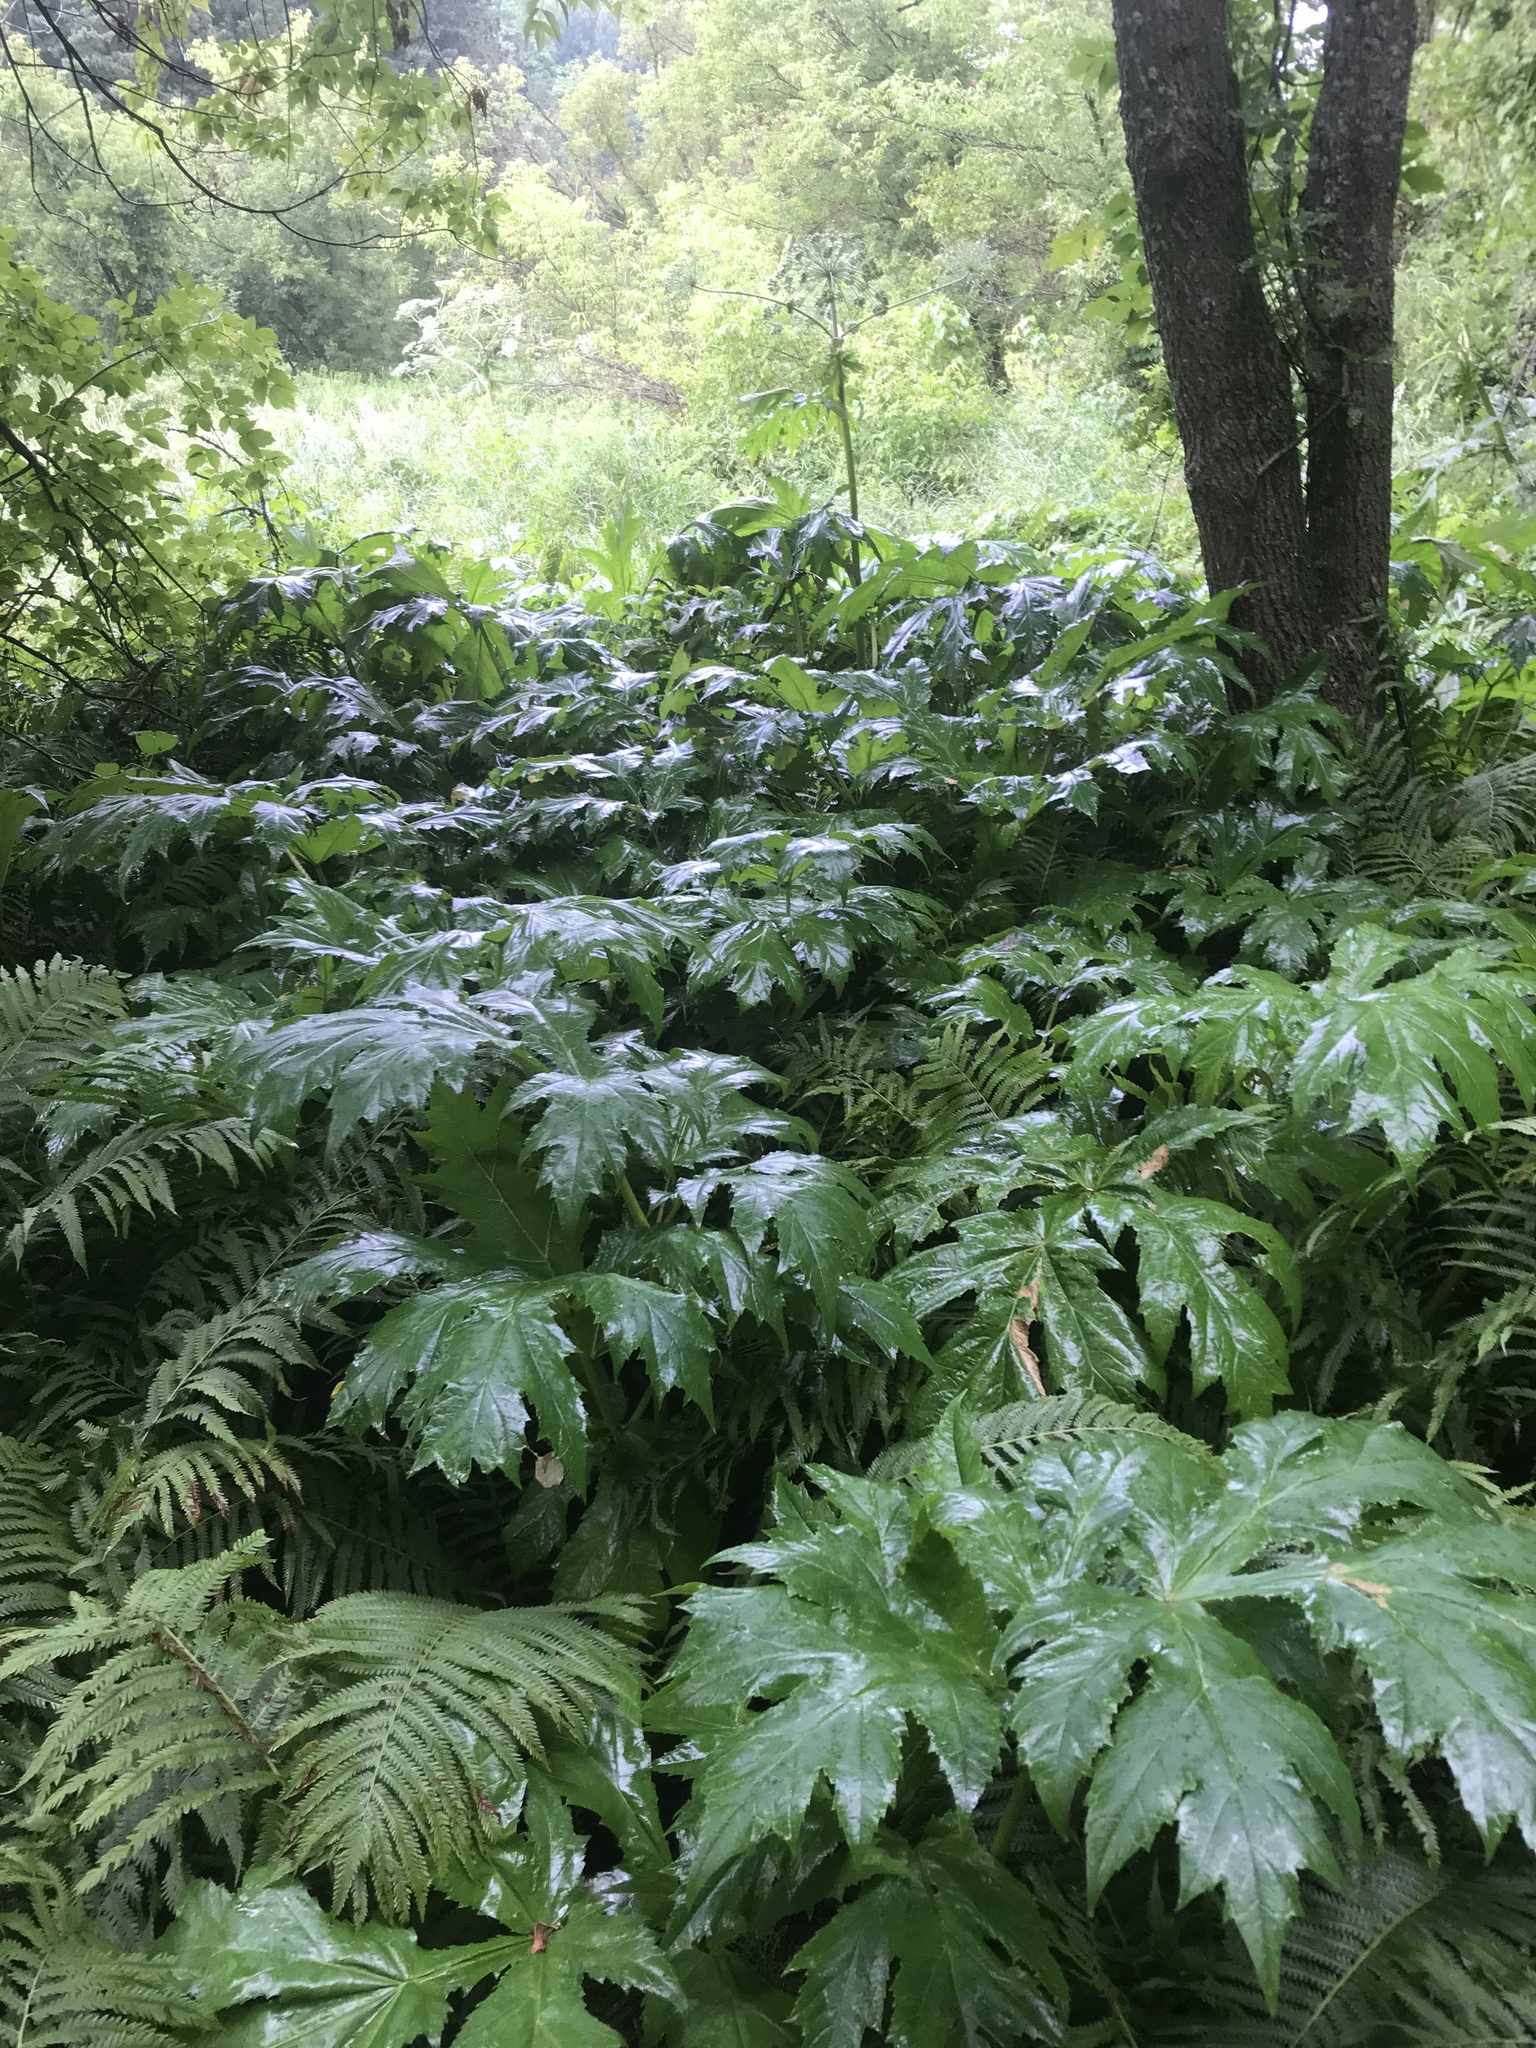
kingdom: Plantae
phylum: Tracheophyta
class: Magnoliopsida
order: Apiales
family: Apiaceae
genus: Heracleum
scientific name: Heracleum mantegazzianum
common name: Giant hogweed
